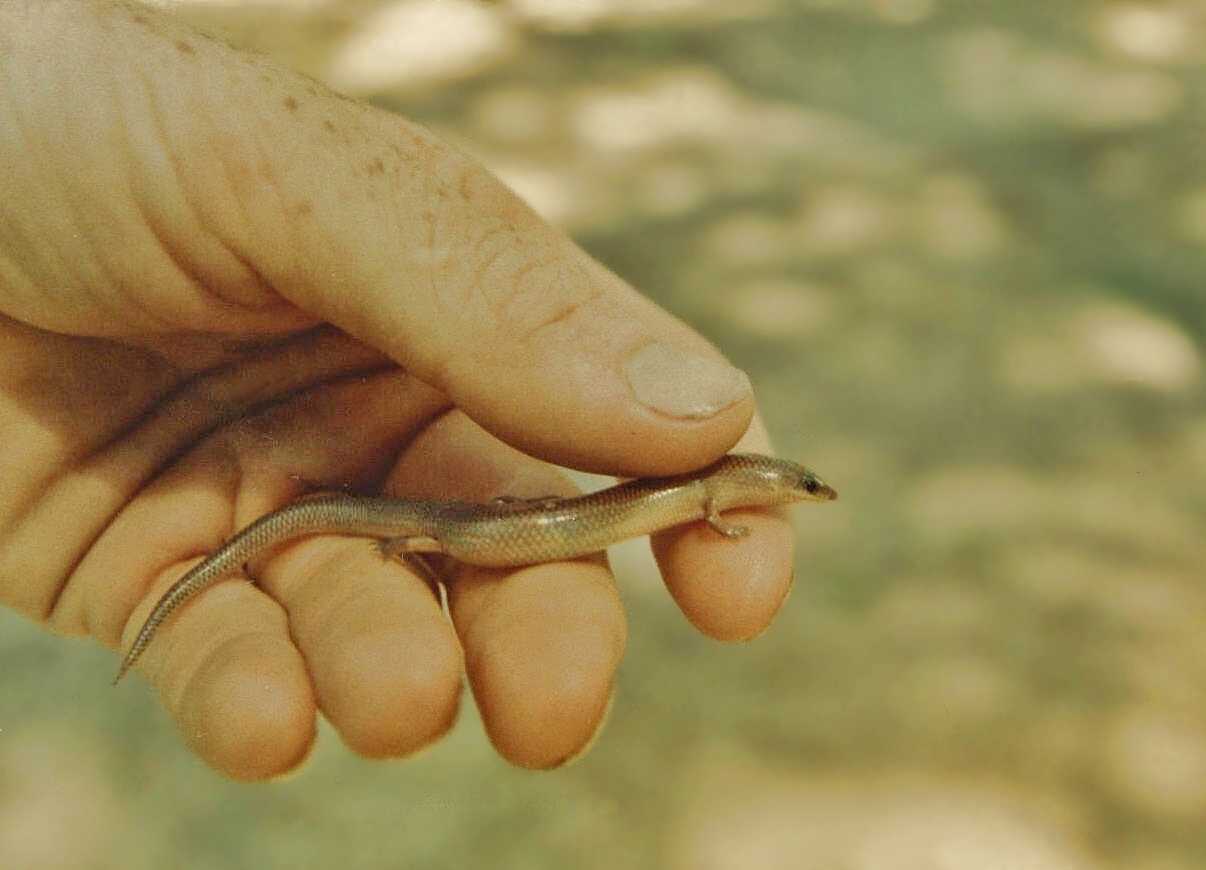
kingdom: Animalia
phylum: Chordata
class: Squamata
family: Scincidae
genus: Mochlus
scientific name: Mochlus sundevallii
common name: Peters' eyelid skink
